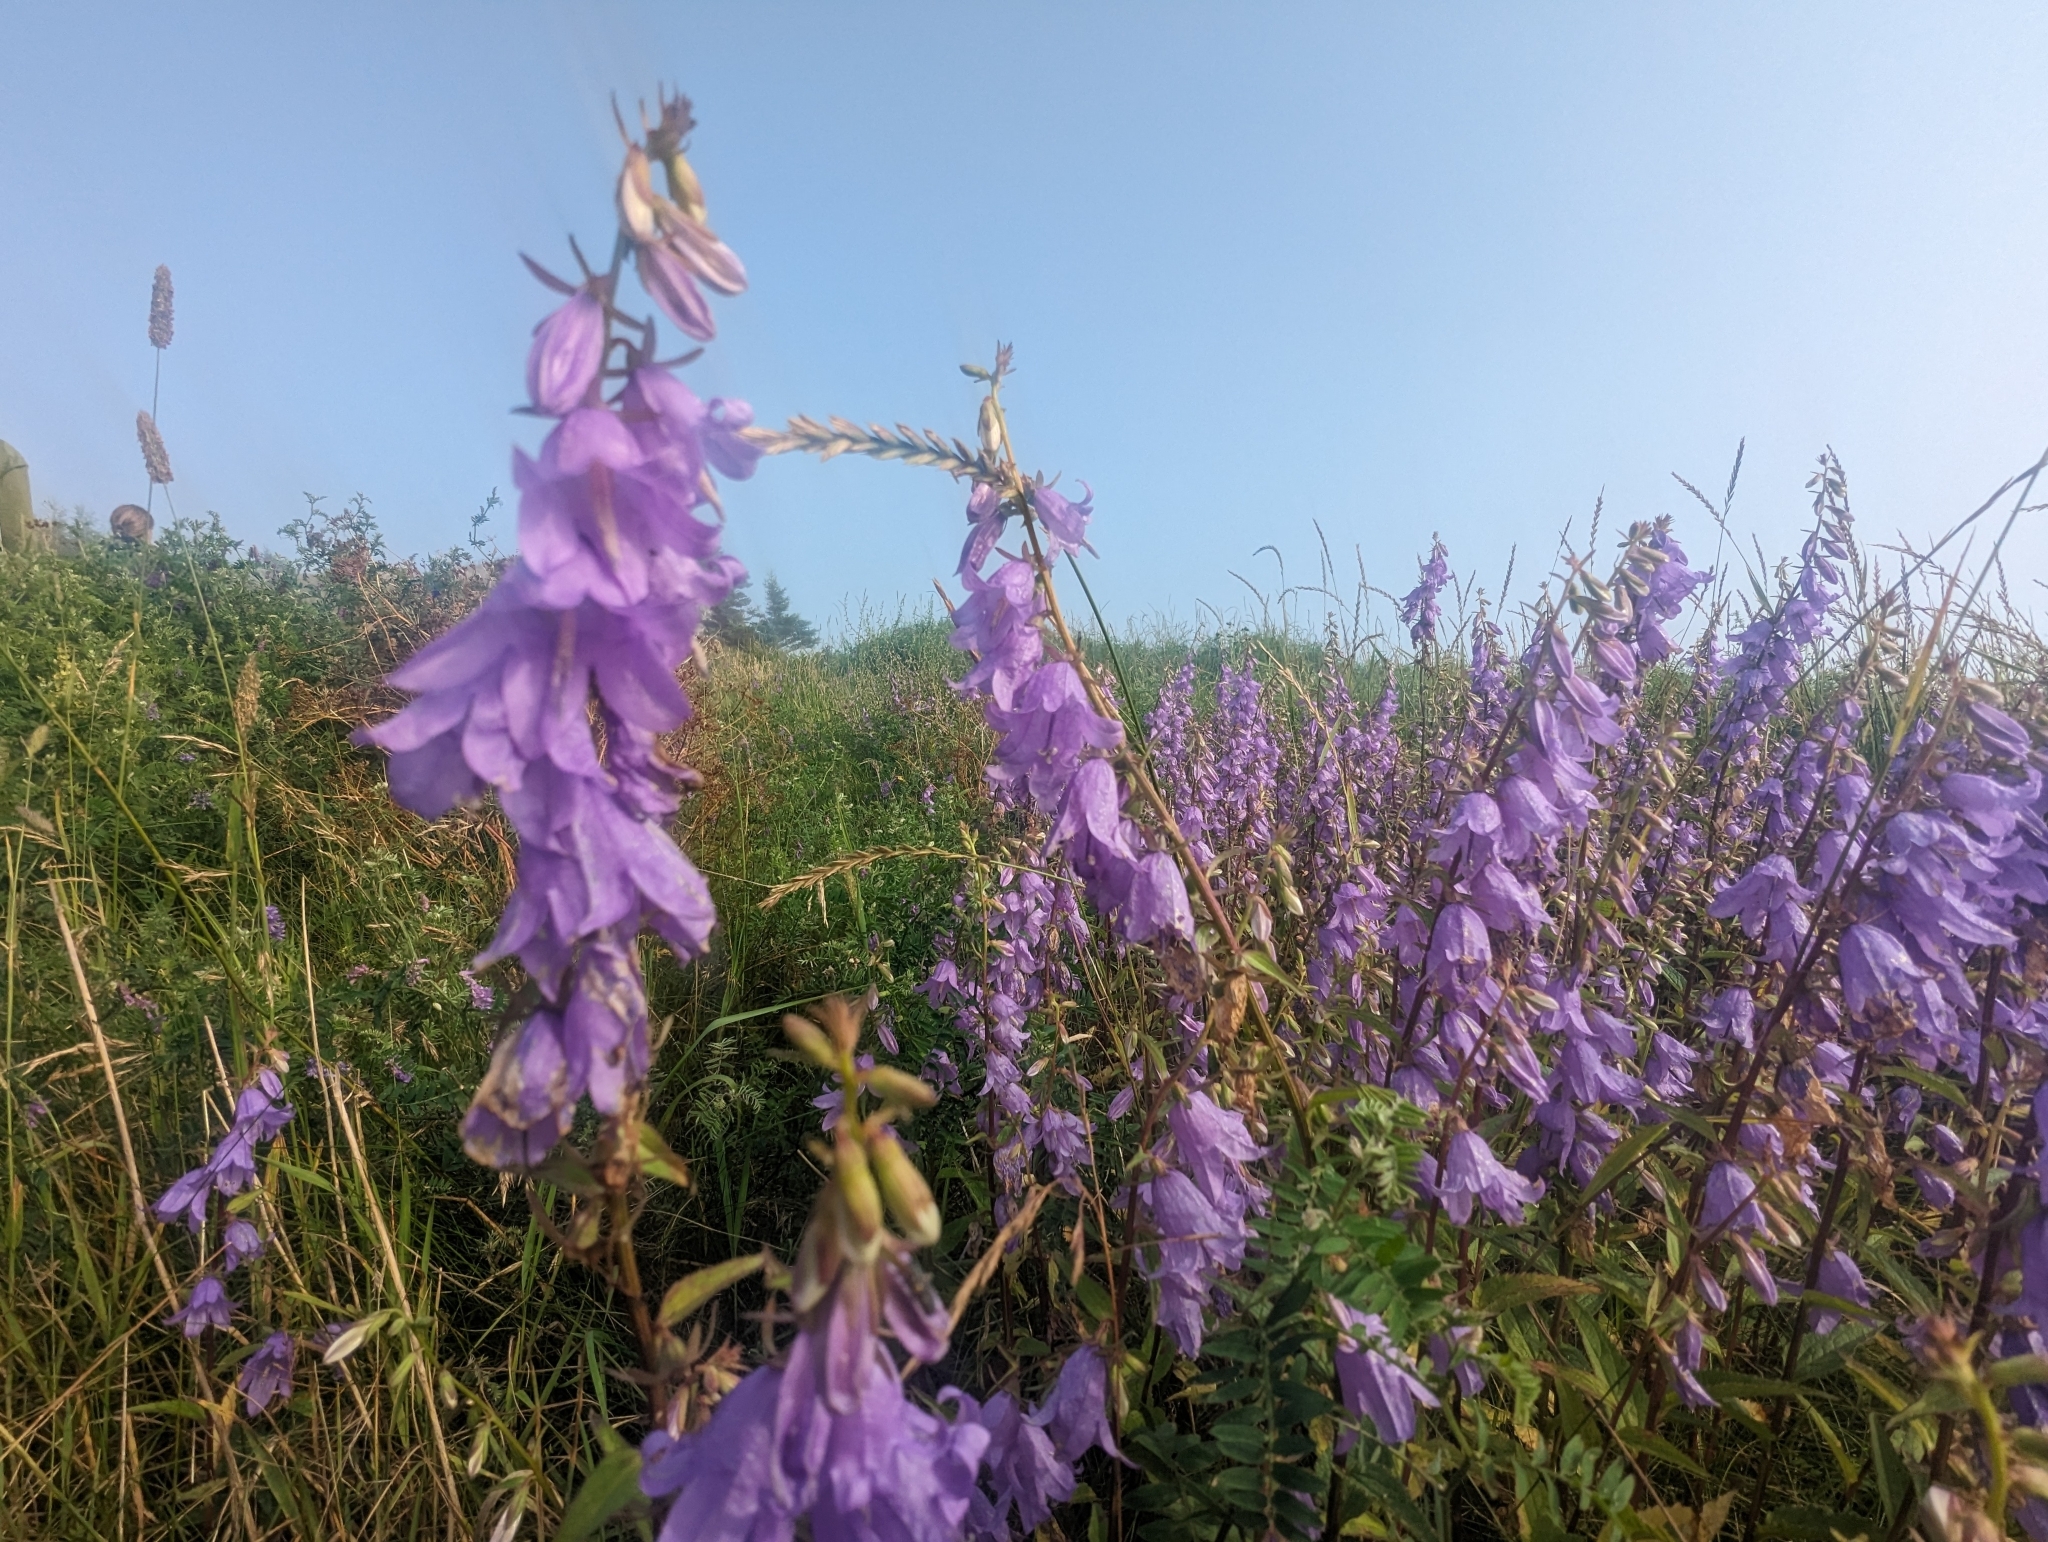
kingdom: Plantae
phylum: Tracheophyta
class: Magnoliopsida
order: Asterales
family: Campanulaceae
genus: Campanula
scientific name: Campanula rapunculoides
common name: Creeping bellflower
